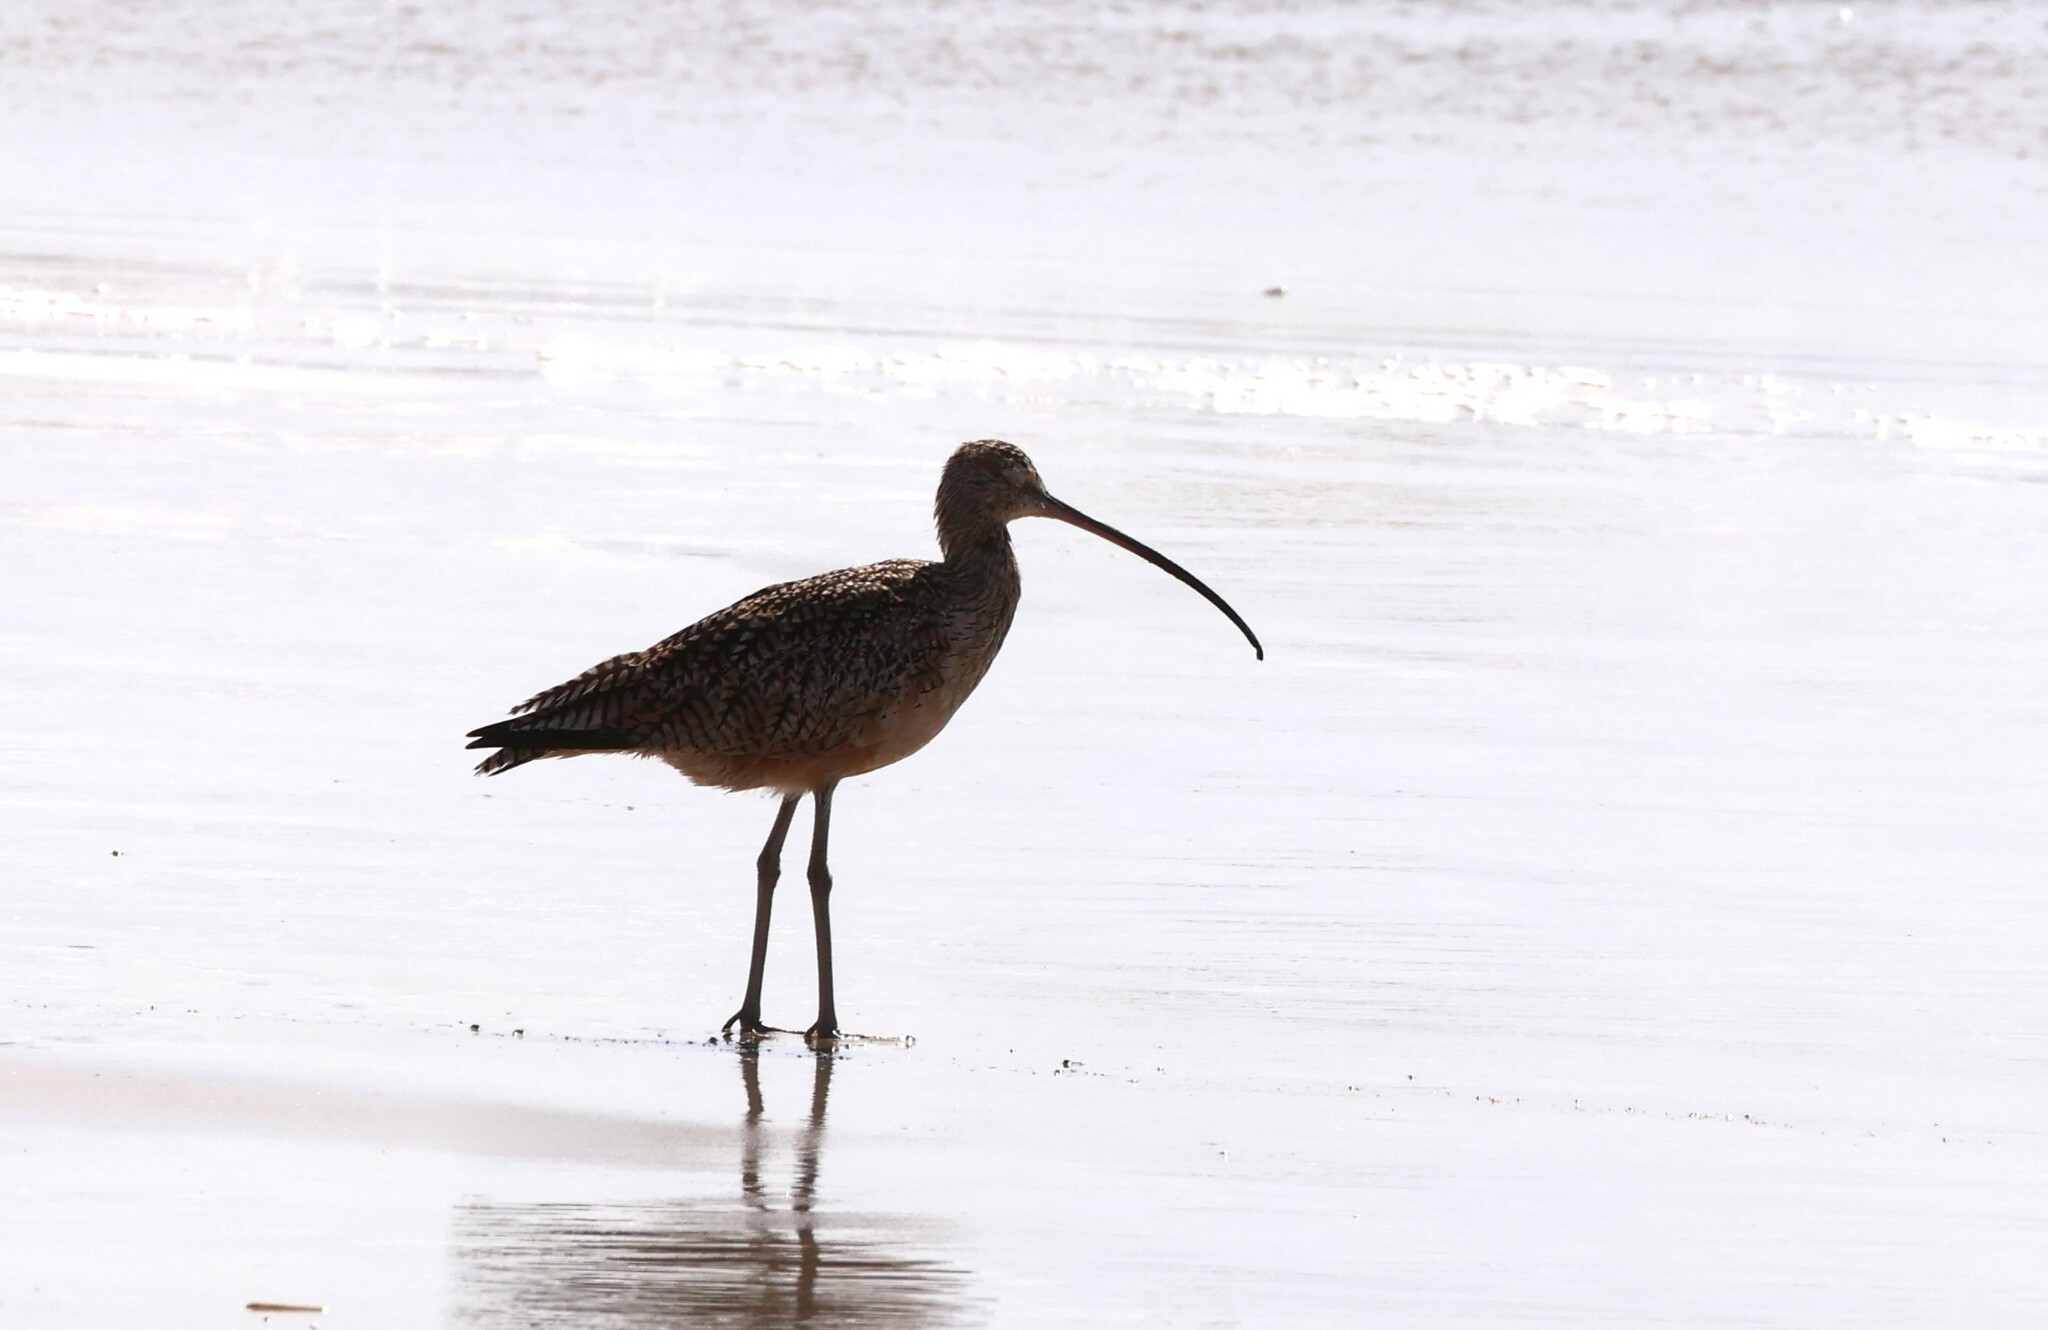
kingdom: Animalia
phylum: Chordata
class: Aves
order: Charadriiformes
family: Scolopacidae
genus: Numenius
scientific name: Numenius americanus
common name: Long-billed curlew
